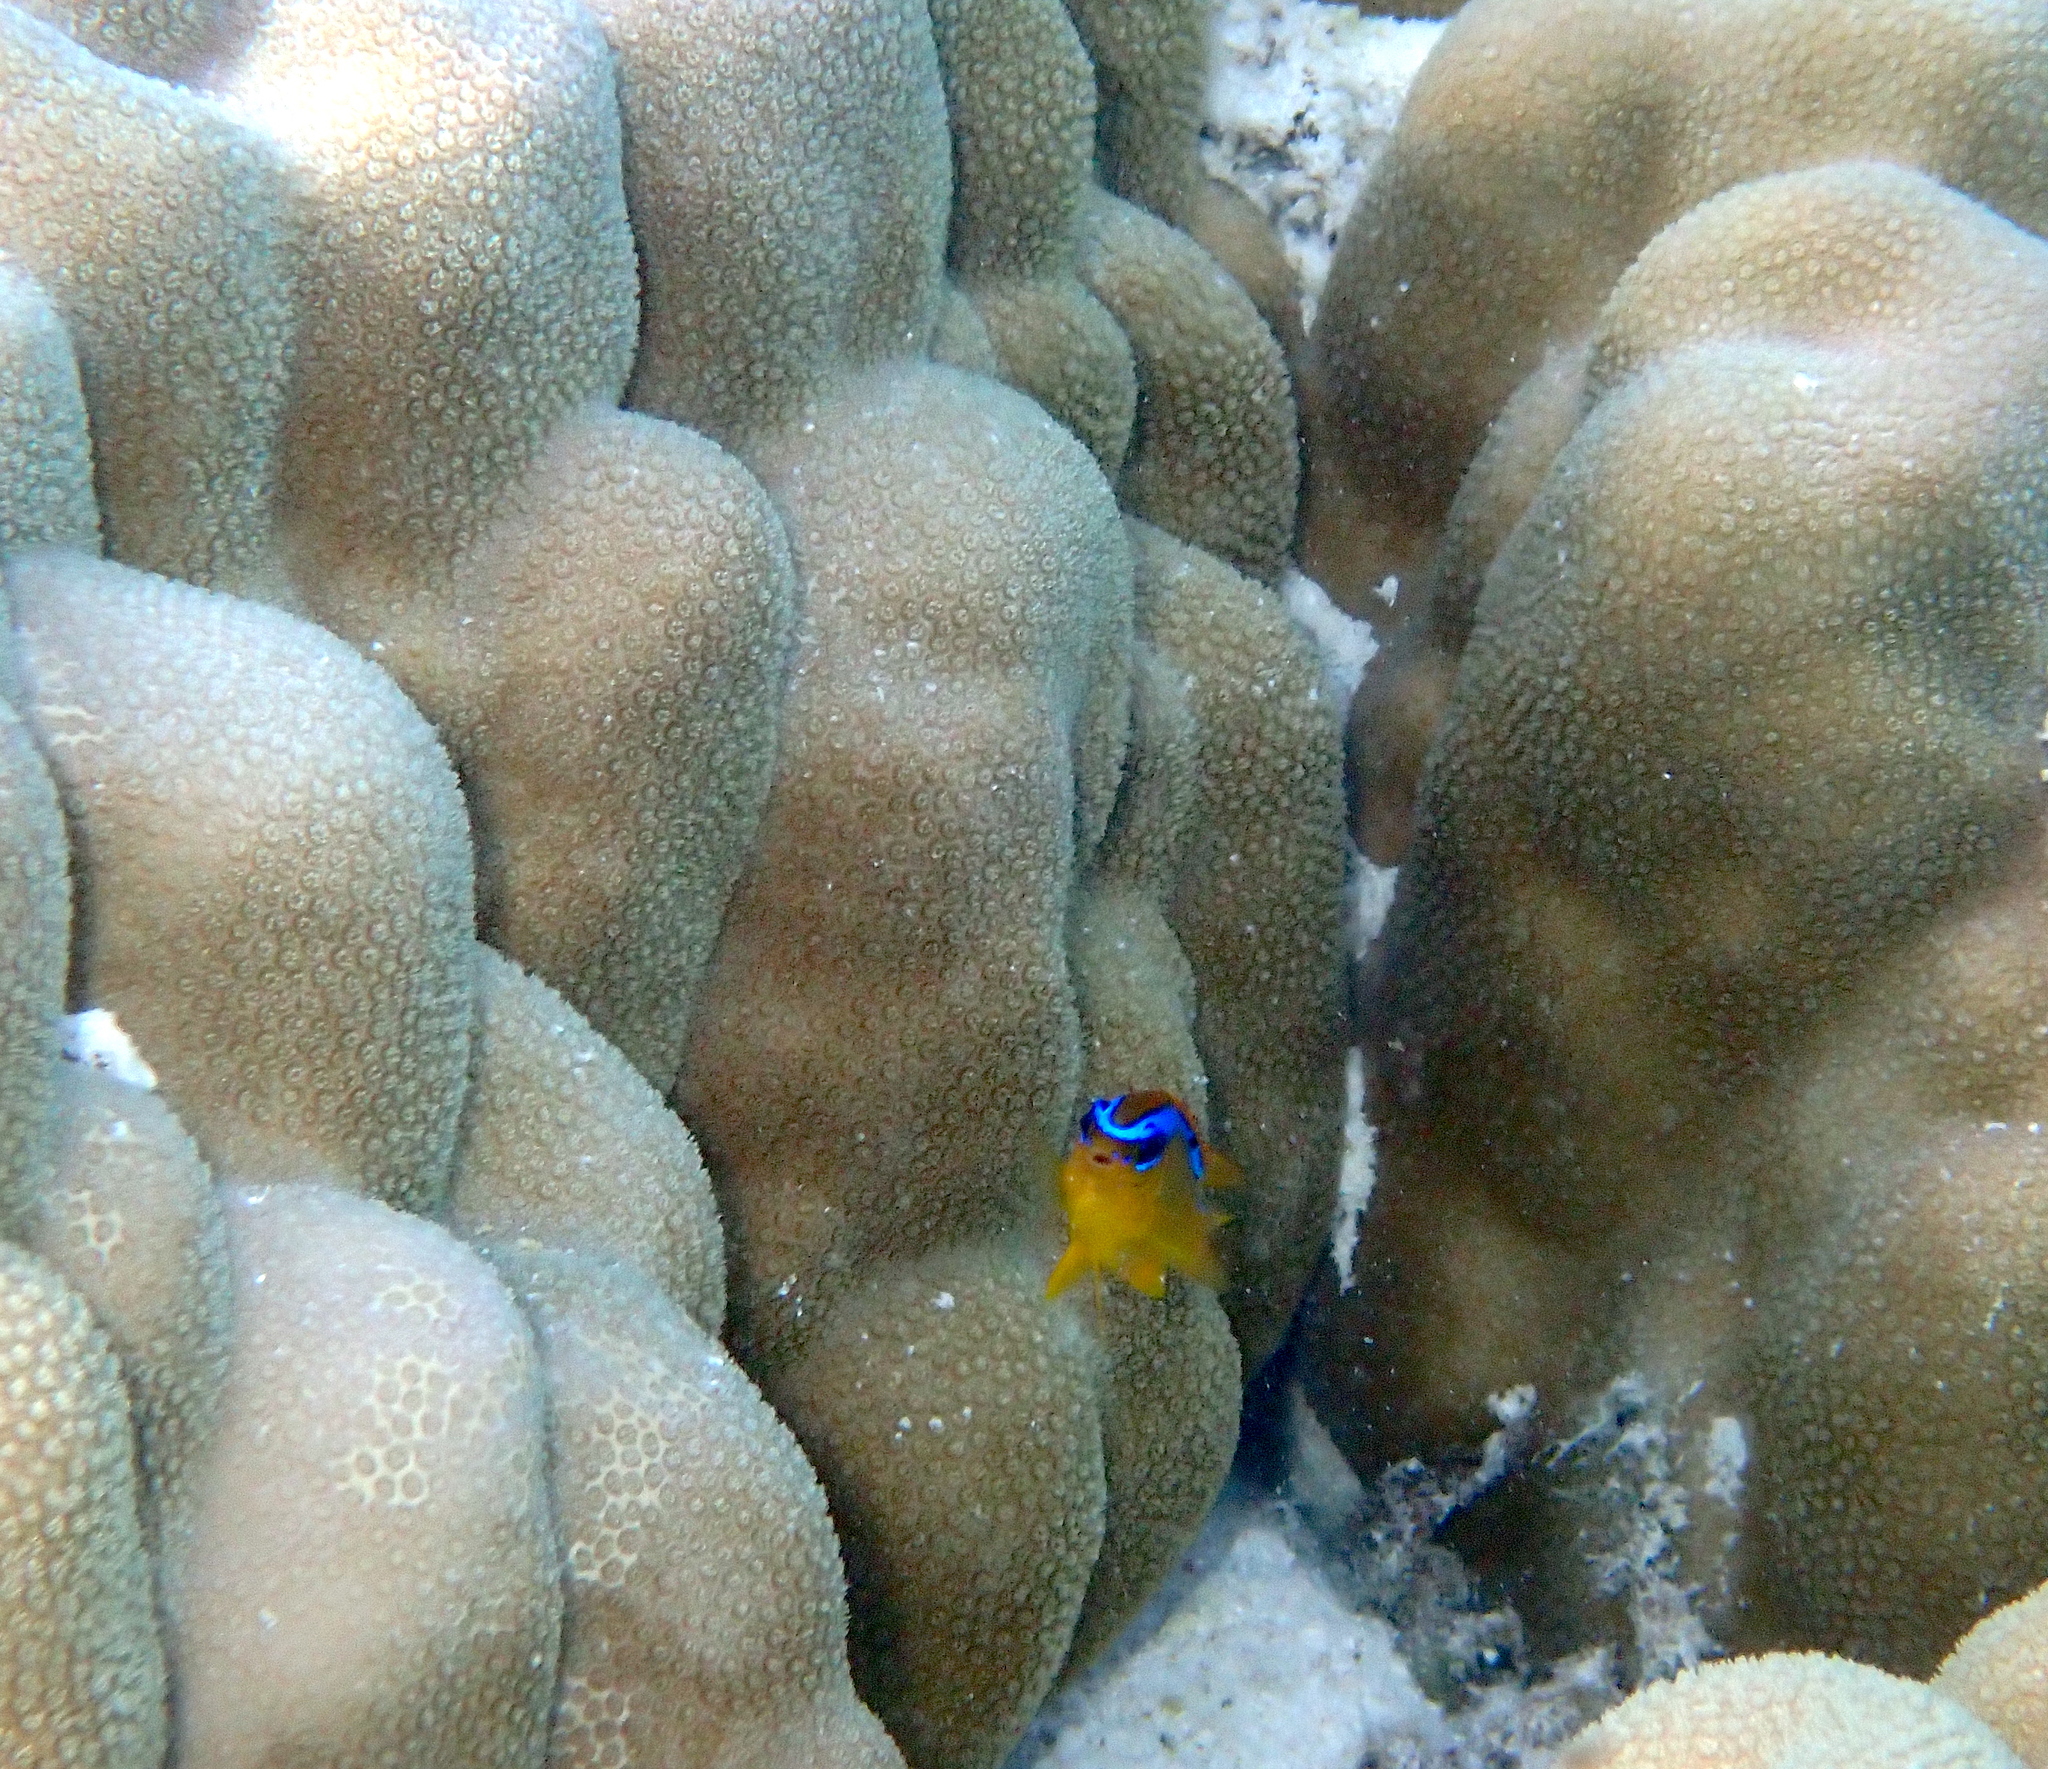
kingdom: Animalia
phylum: Chordata
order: Perciformes
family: Pomacentridae
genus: Chrysiptera
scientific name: Chrysiptera brownriggii
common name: Surge demoiselle
